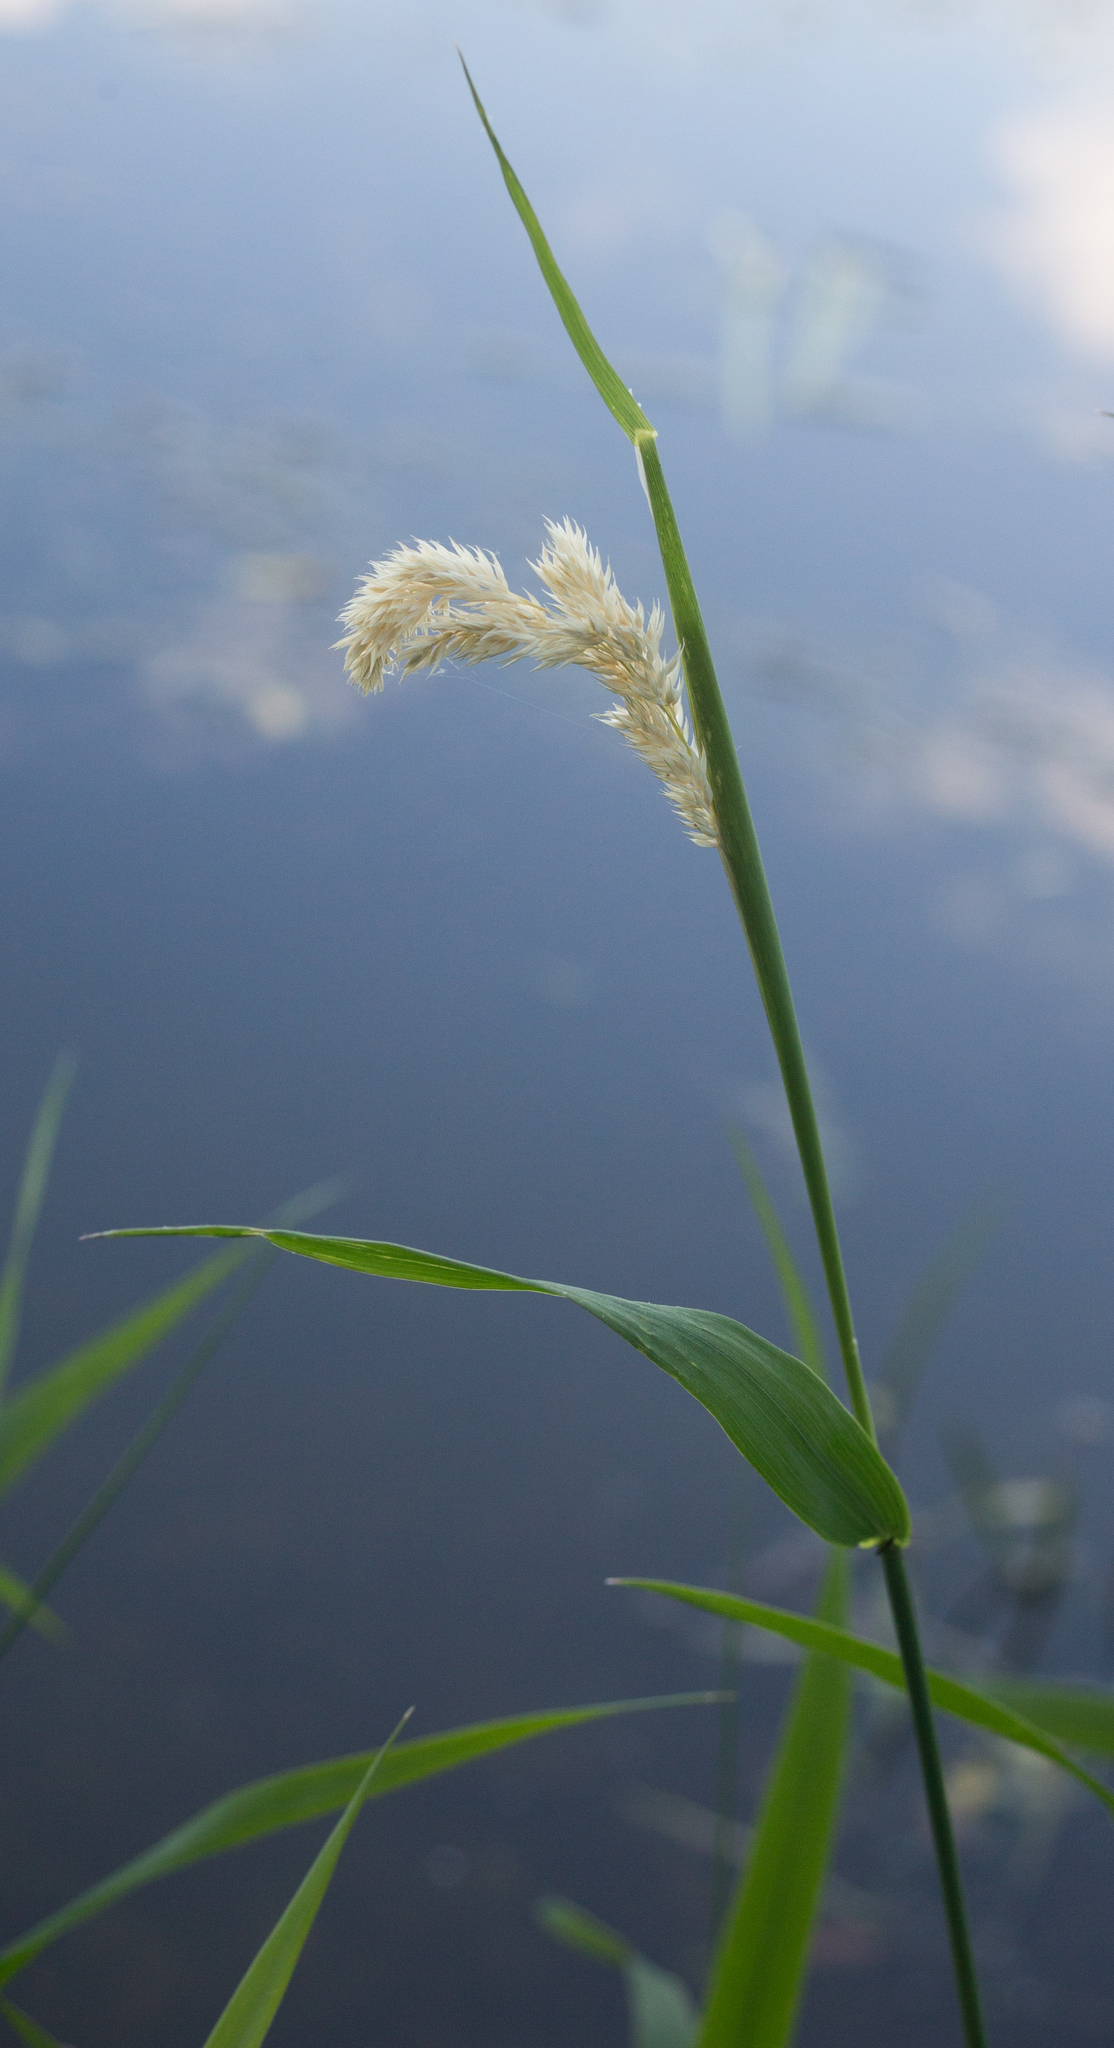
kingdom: Plantae
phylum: Tracheophyta
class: Liliopsida
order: Poales
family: Poaceae
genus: Phalaris
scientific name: Phalaris arundinacea
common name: Reed canary-grass
